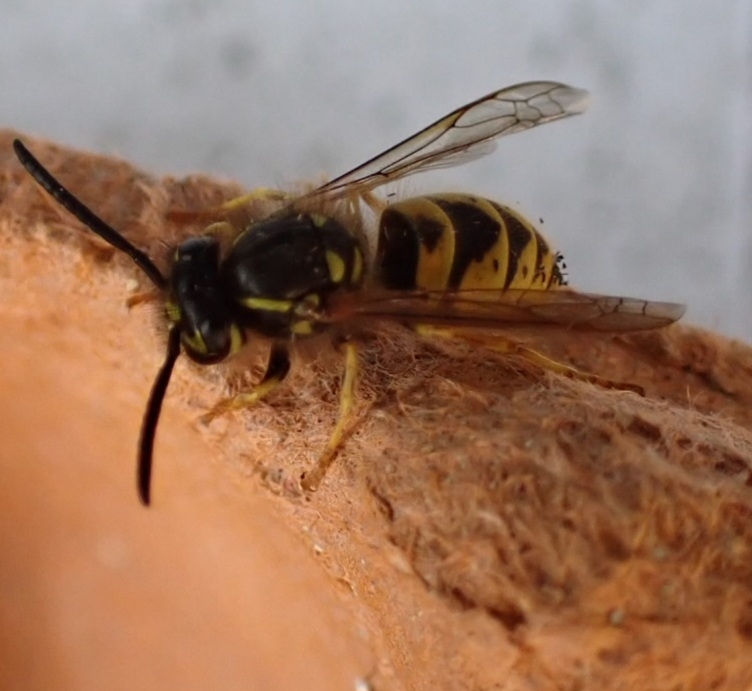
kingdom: Animalia
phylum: Arthropoda
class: Insecta
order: Hymenoptera
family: Vespidae
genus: Vespula
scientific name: Vespula vulgaris
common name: Common wasp
